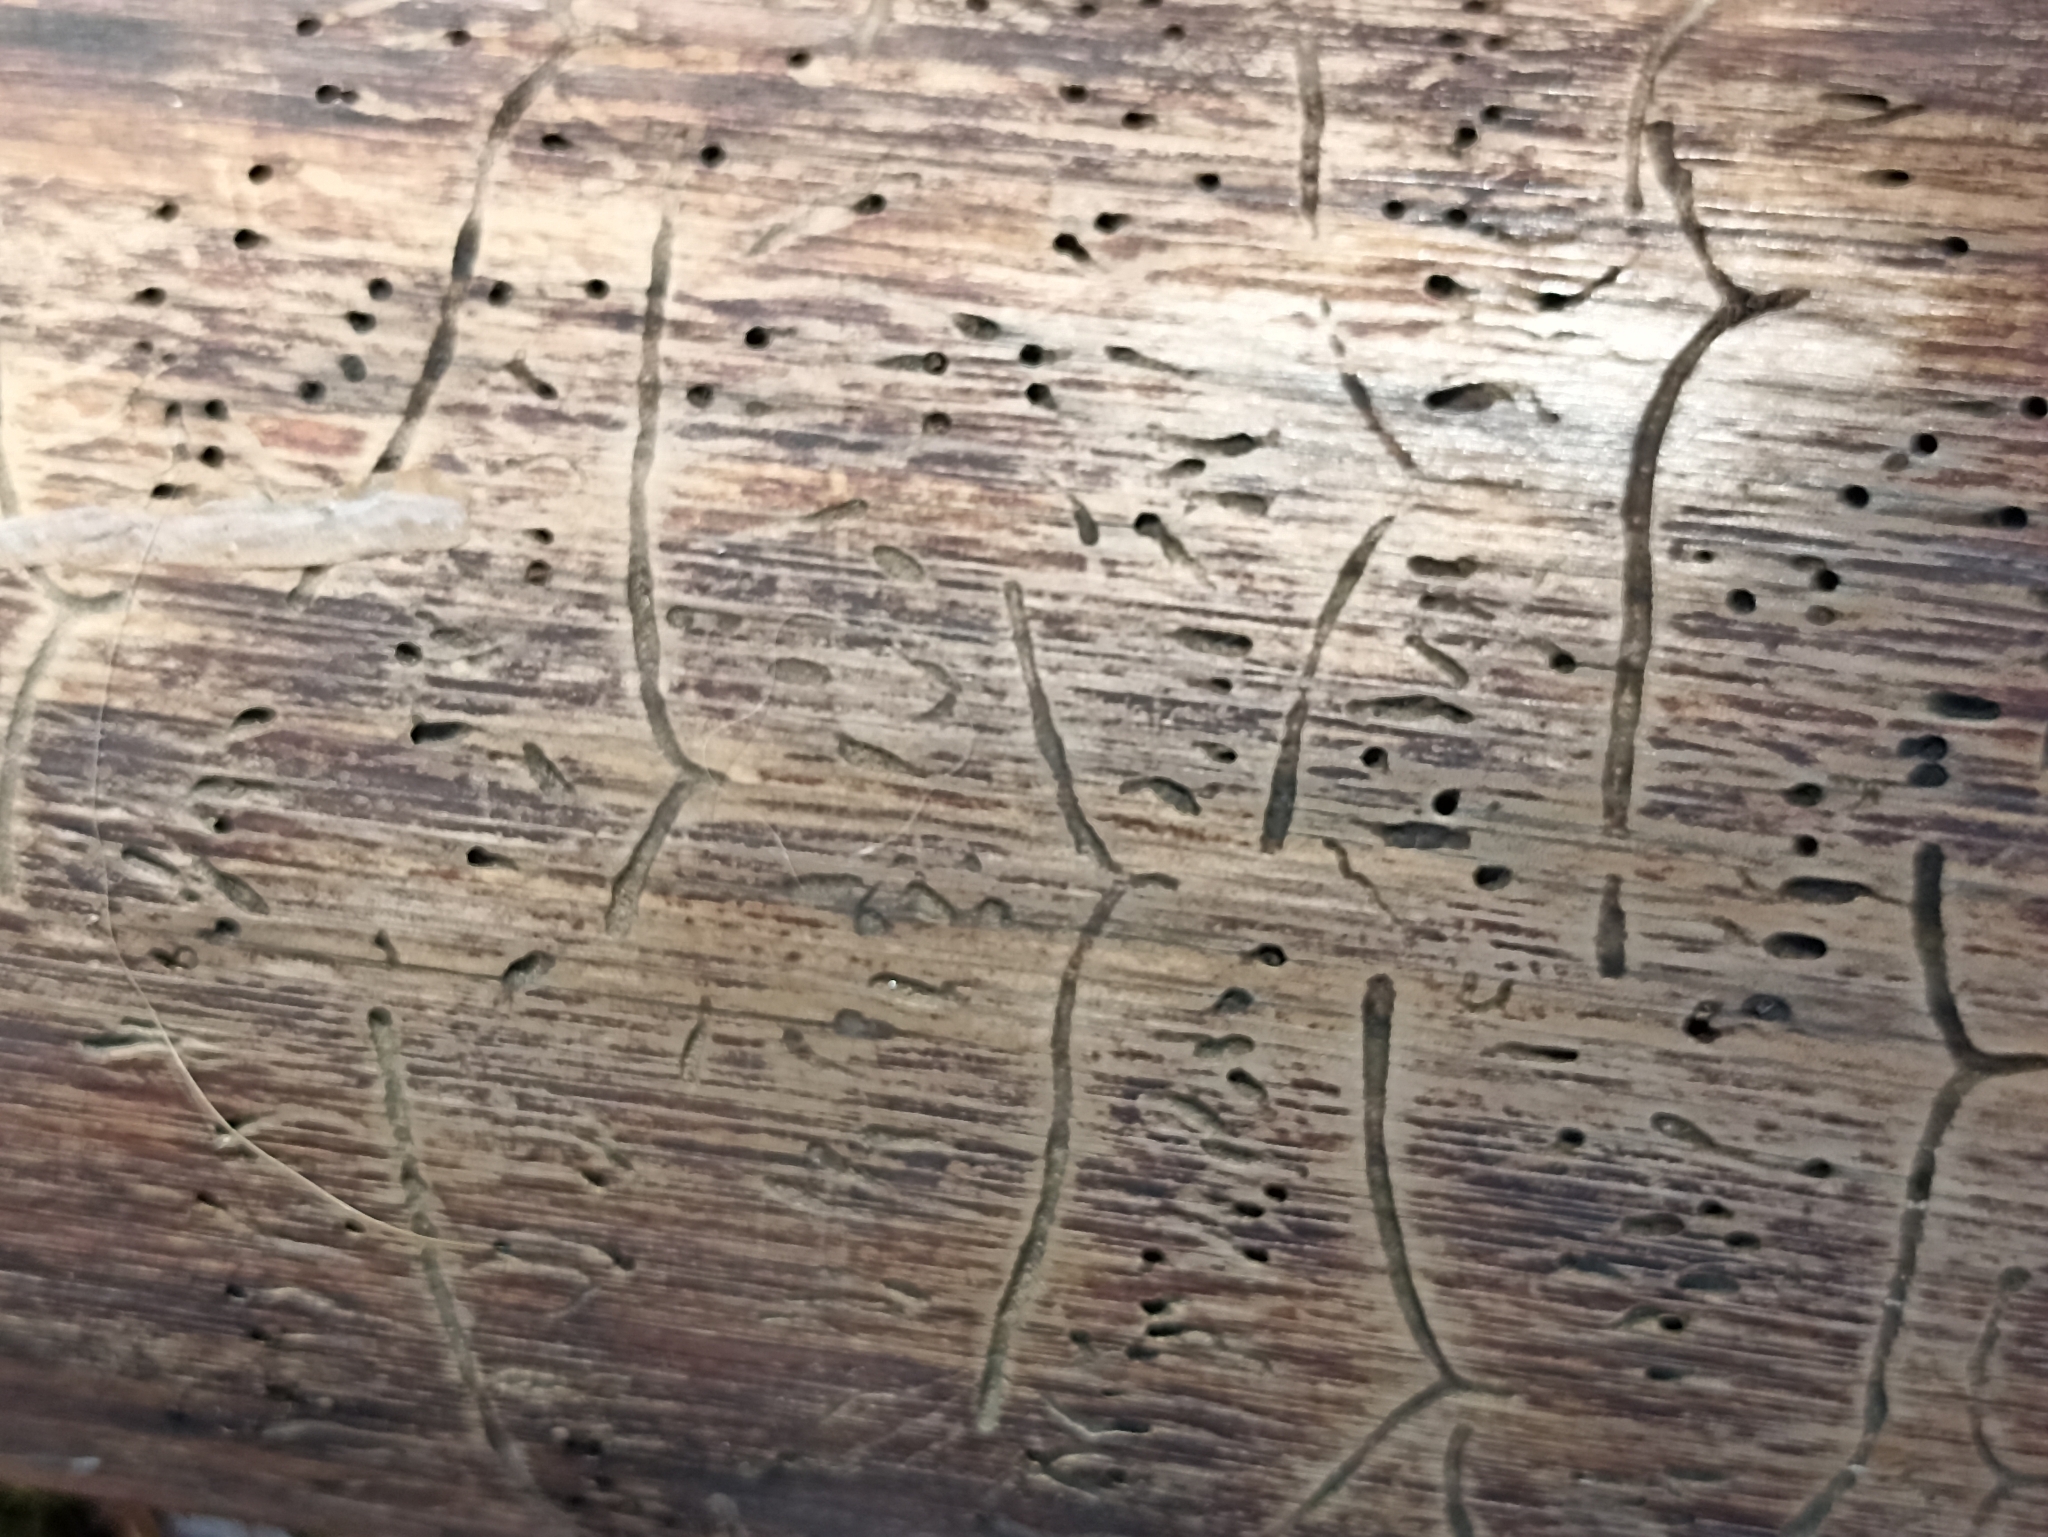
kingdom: Animalia
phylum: Arthropoda
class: Insecta
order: Coleoptera
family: Curculionidae
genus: Tomicus
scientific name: Tomicus minor
